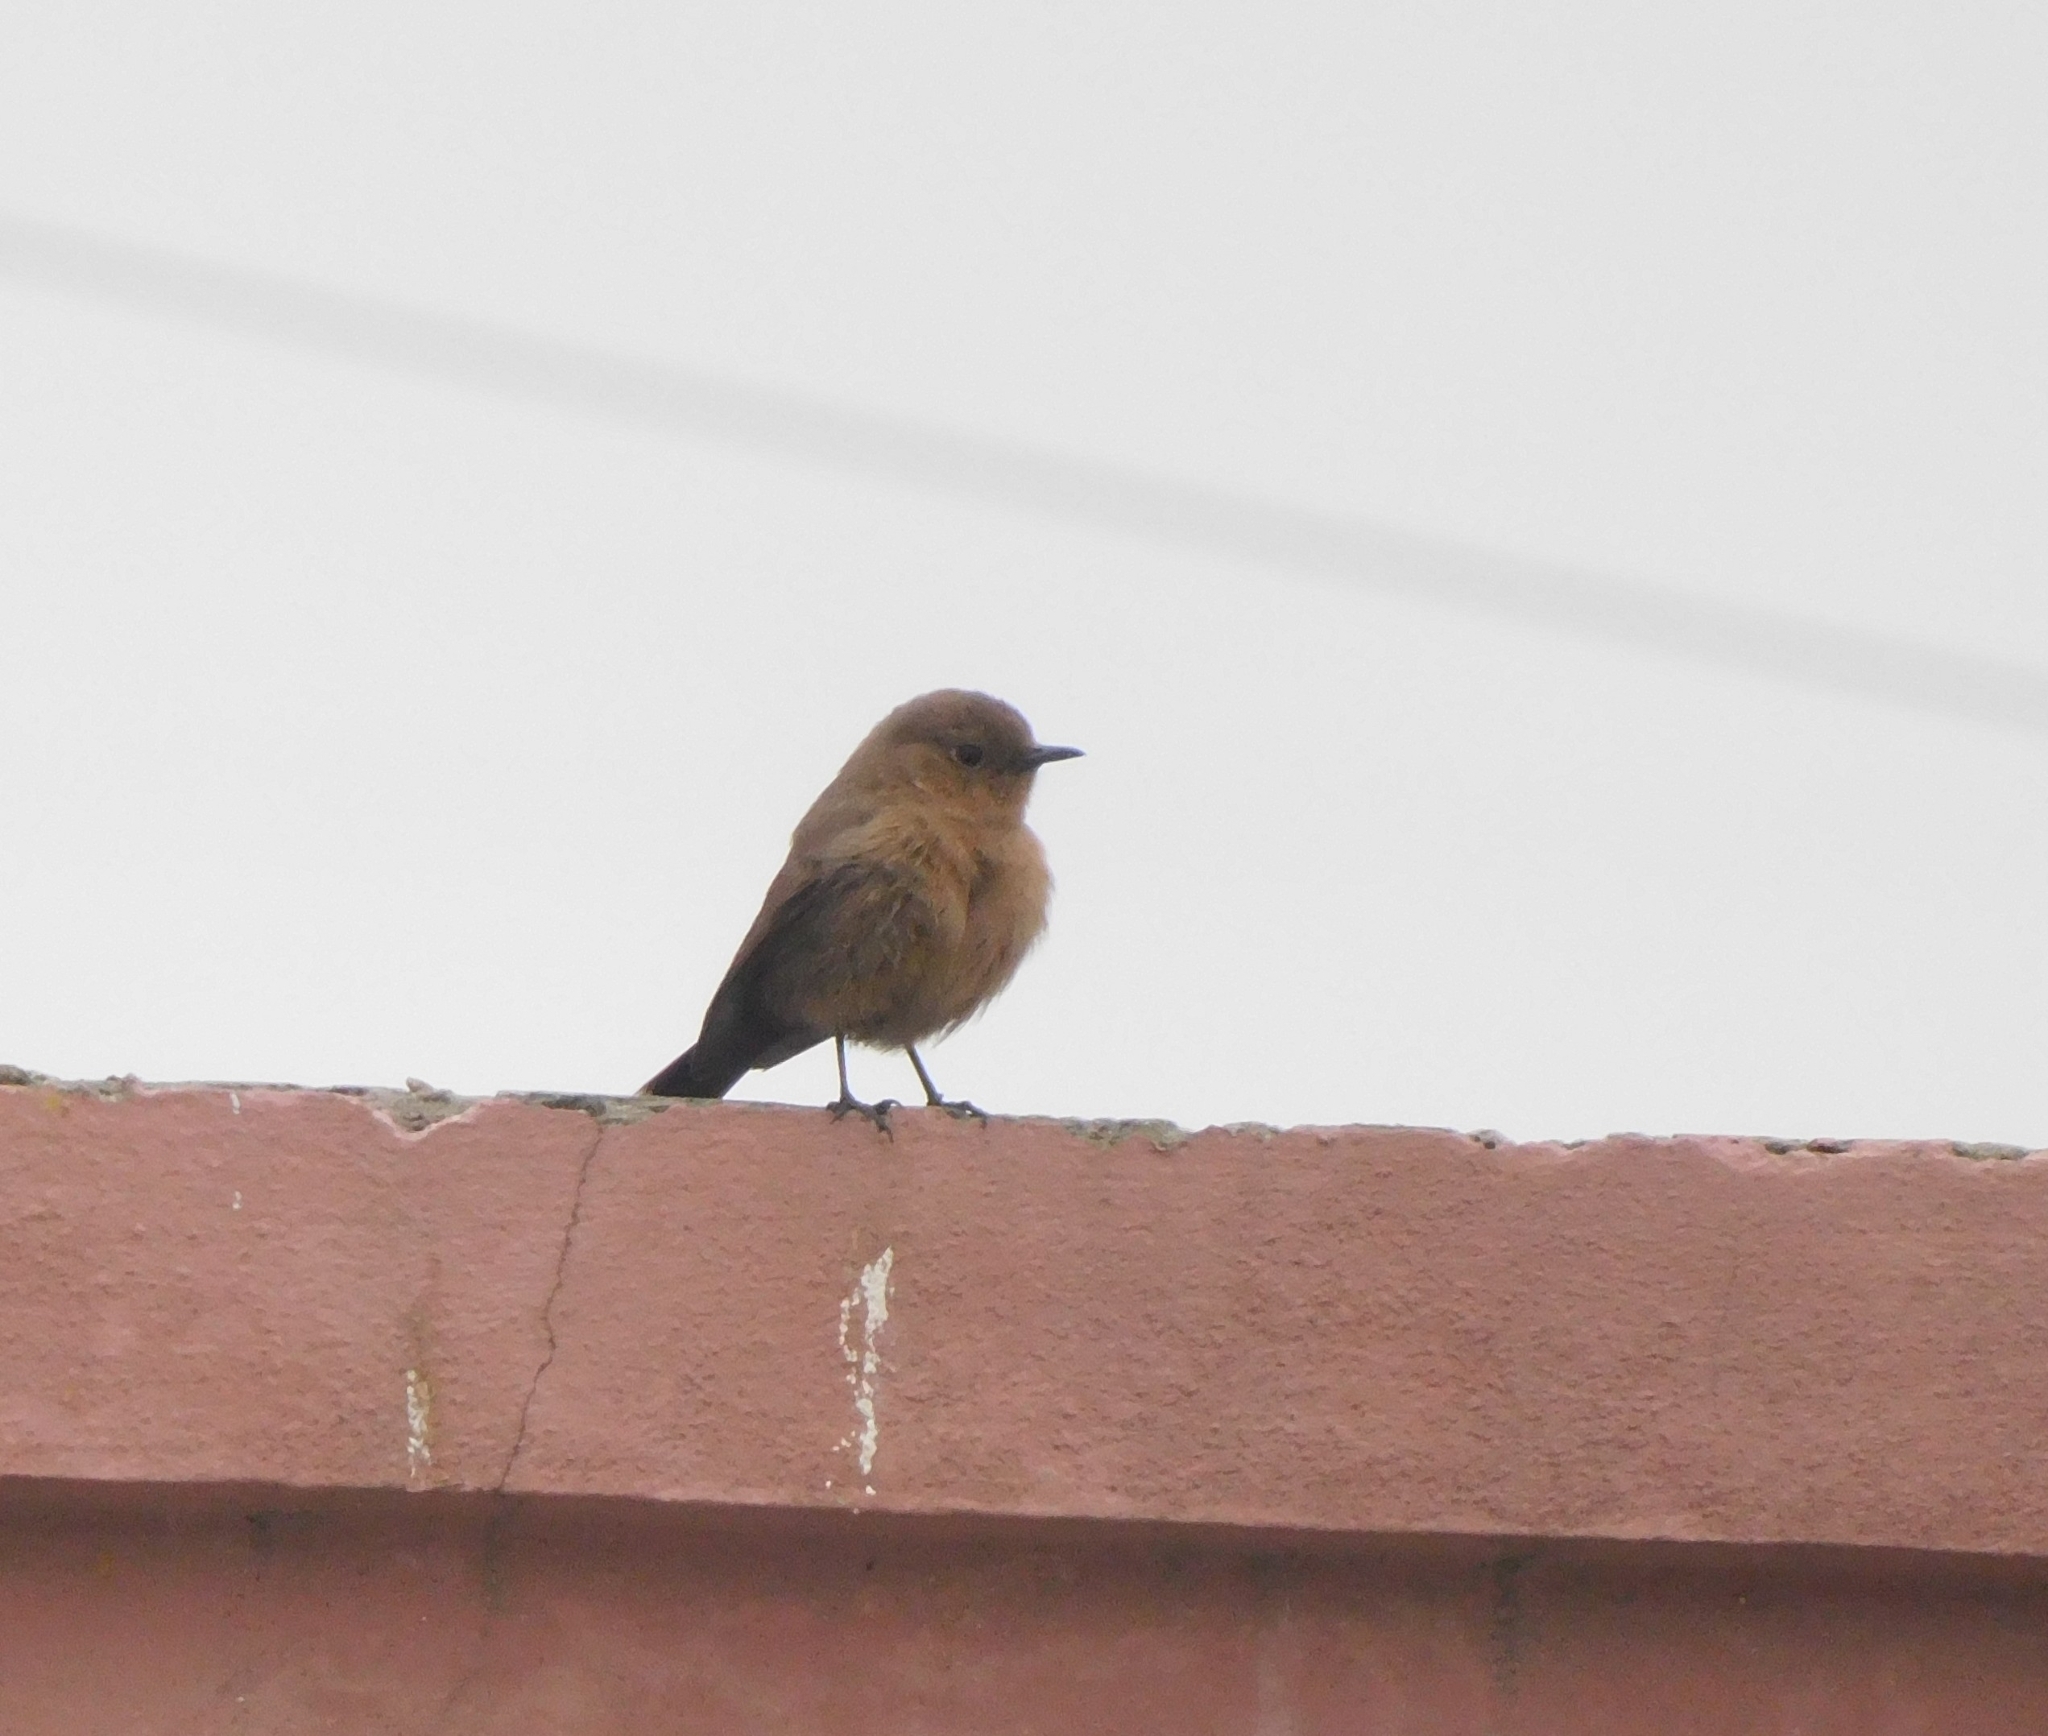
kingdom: Animalia
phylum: Chordata
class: Aves
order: Passeriformes
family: Muscicapidae
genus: Oenanthe
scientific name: Oenanthe fusca
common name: Brown rock chat
